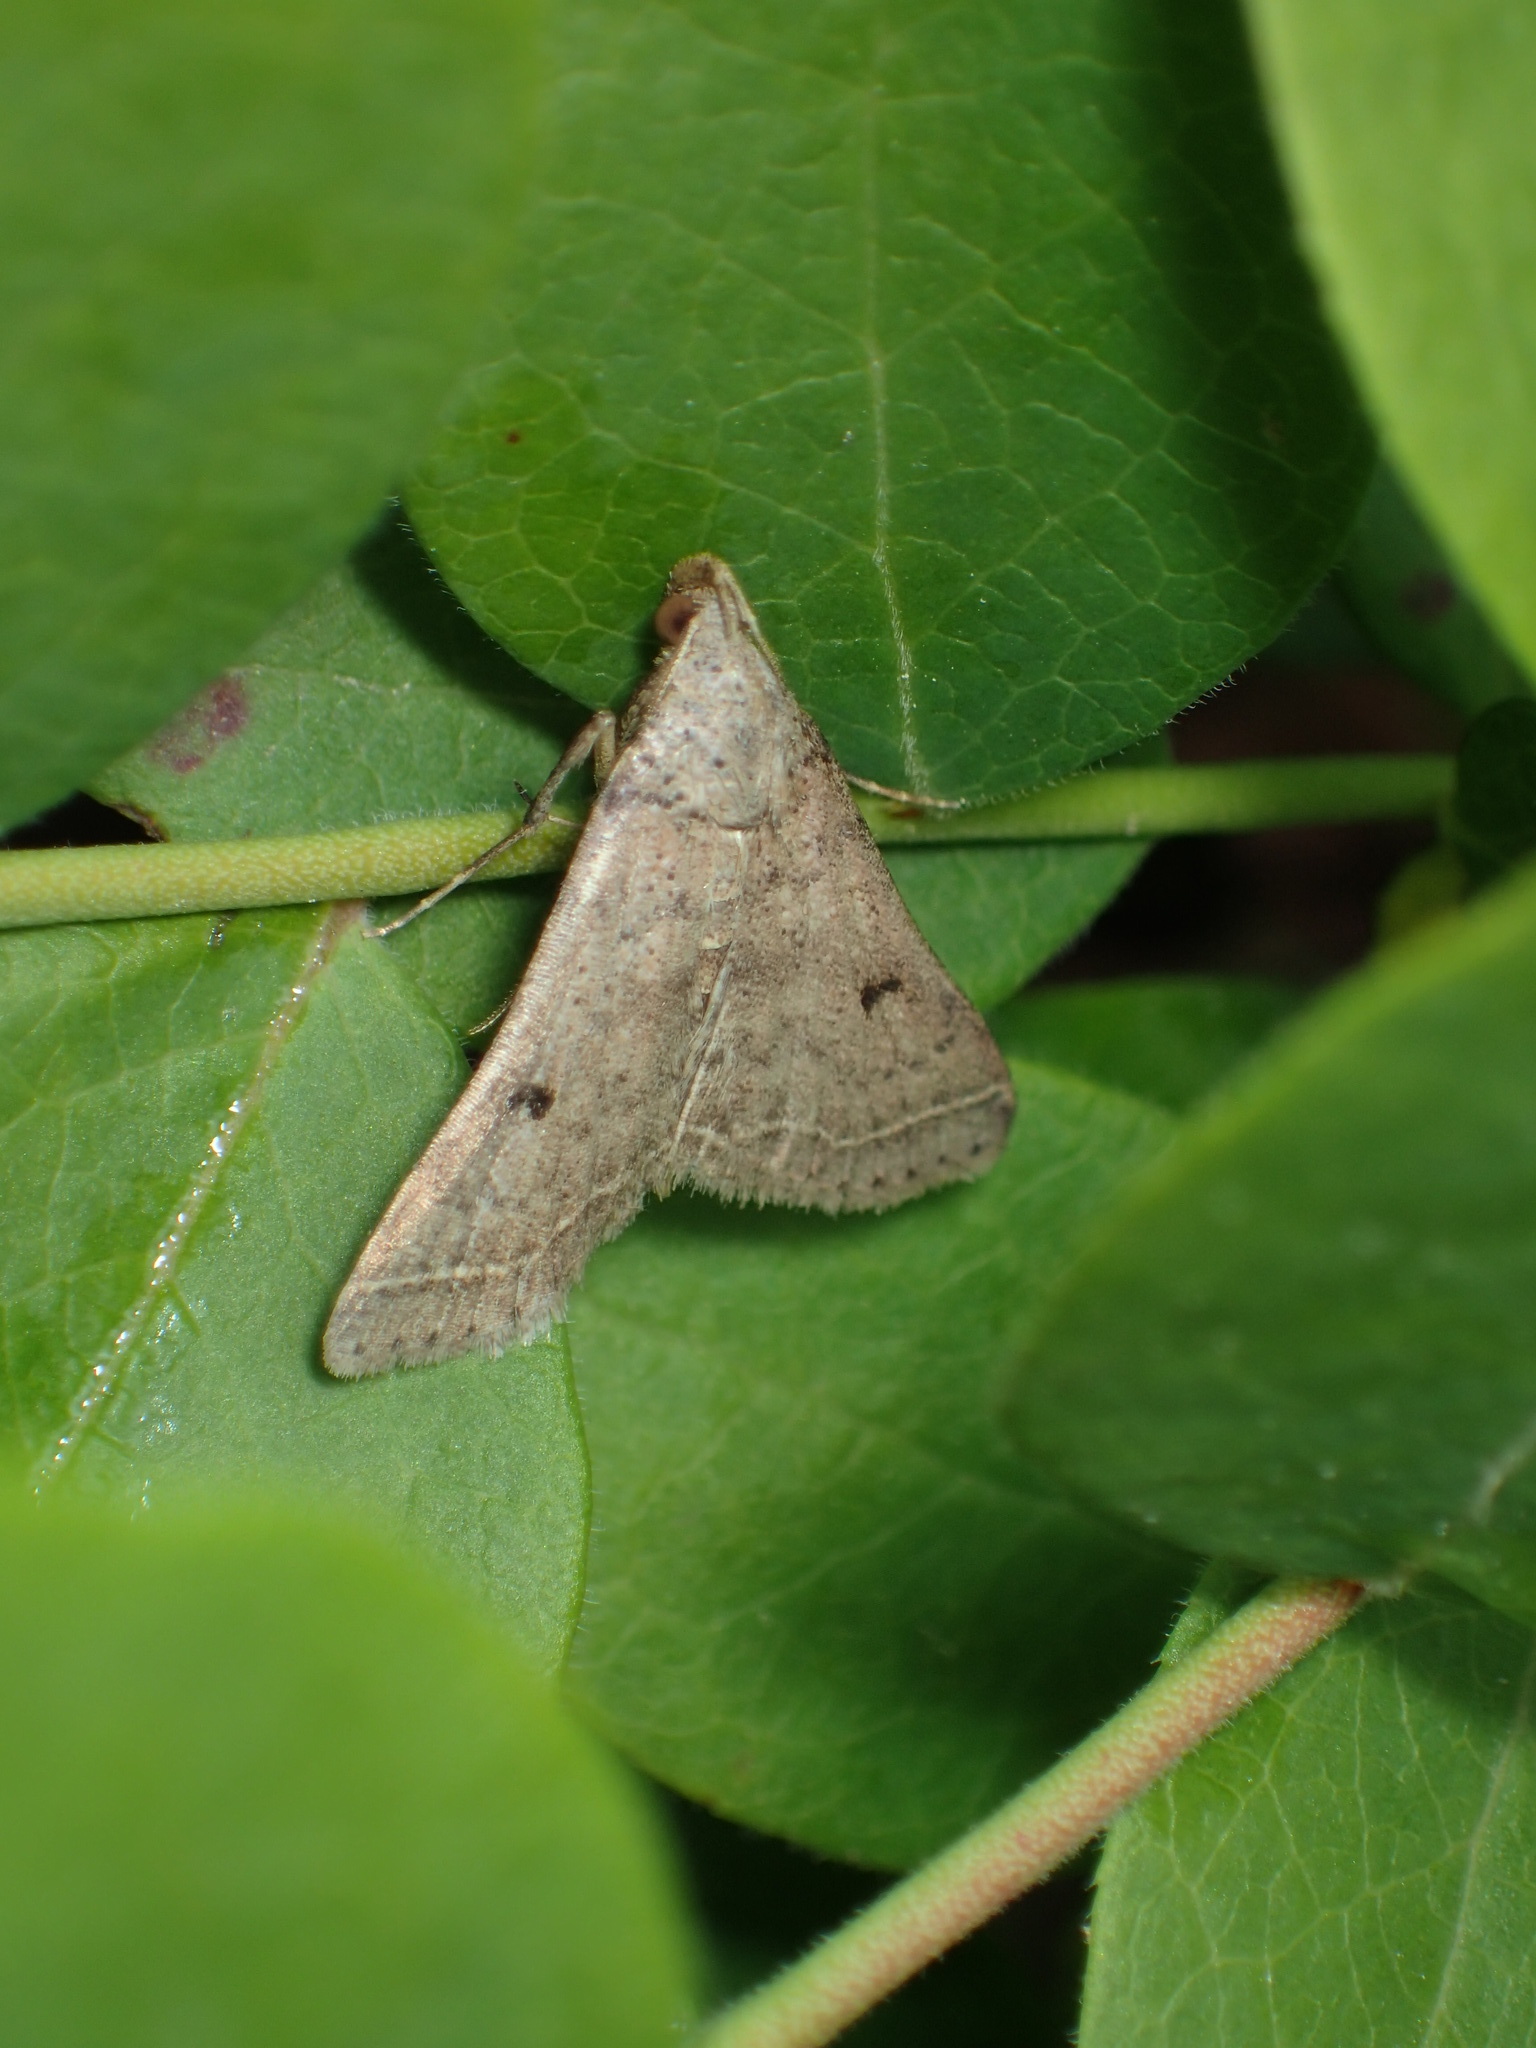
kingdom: Animalia
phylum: Arthropoda
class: Insecta
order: Lepidoptera
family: Erebidae
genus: Bleptina
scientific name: Bleptina caradrinalis
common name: Bent-winged owlet
